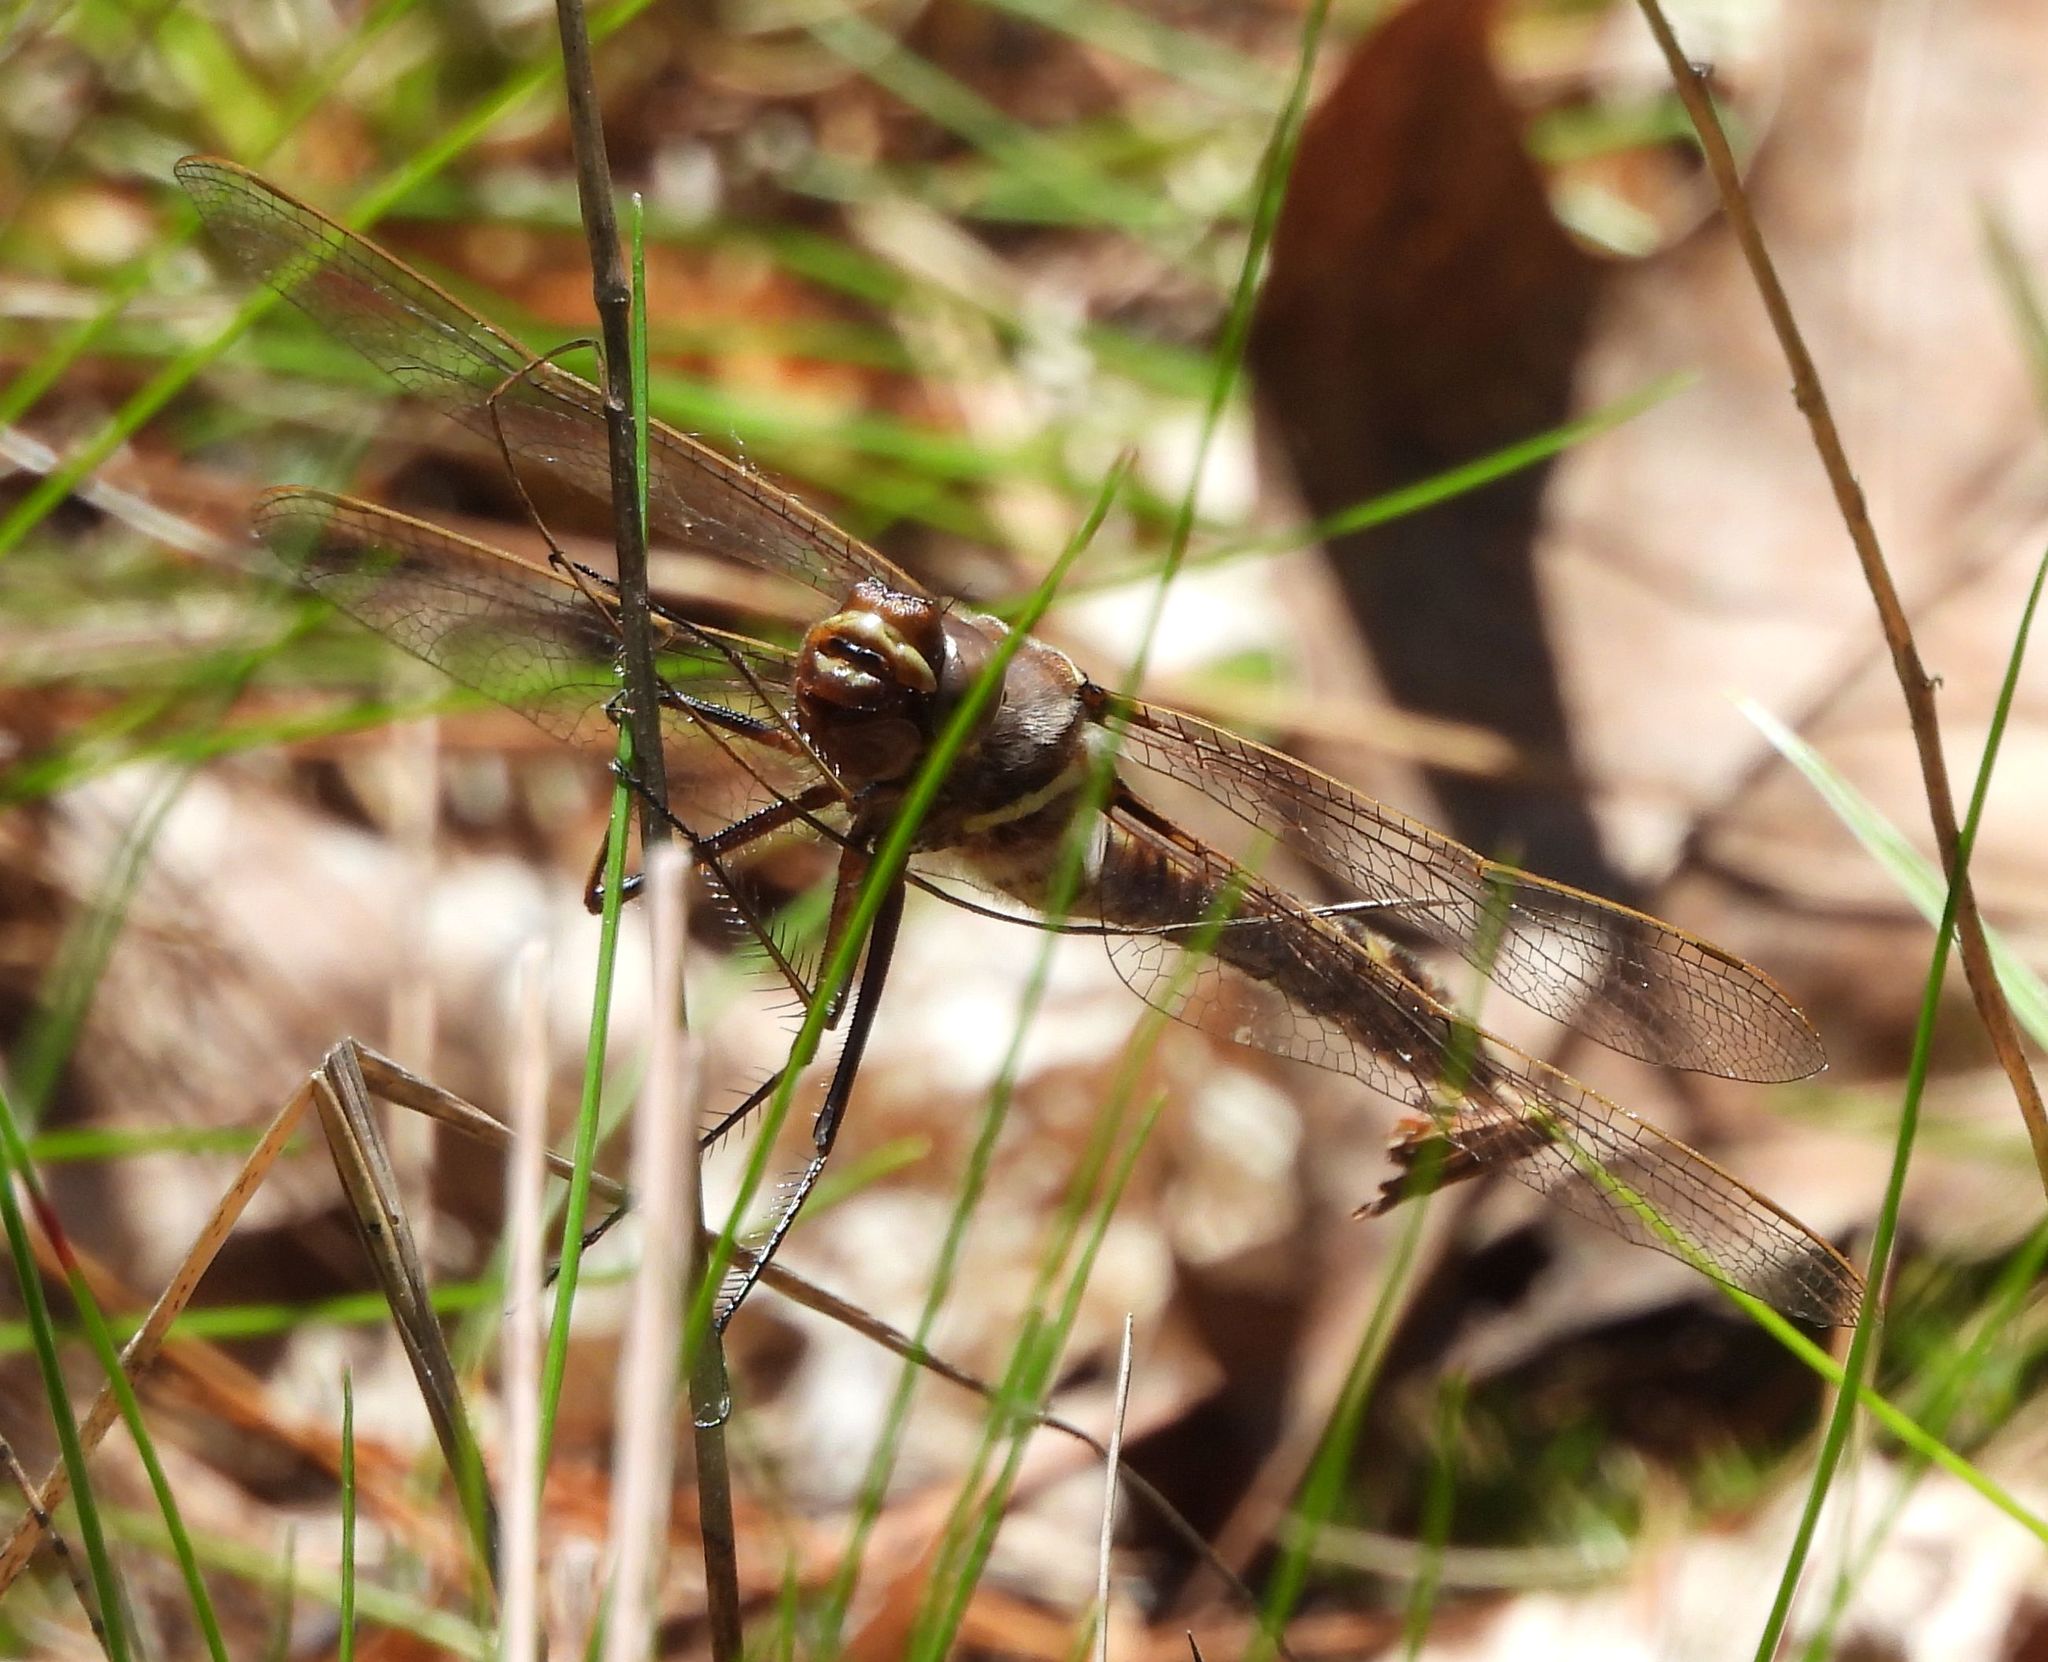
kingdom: Animalia
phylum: Arthropoda
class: Insecta
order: Odonata
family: Macromiidae
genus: Didymops
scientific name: Didymops transversa
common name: Stream cruiser
